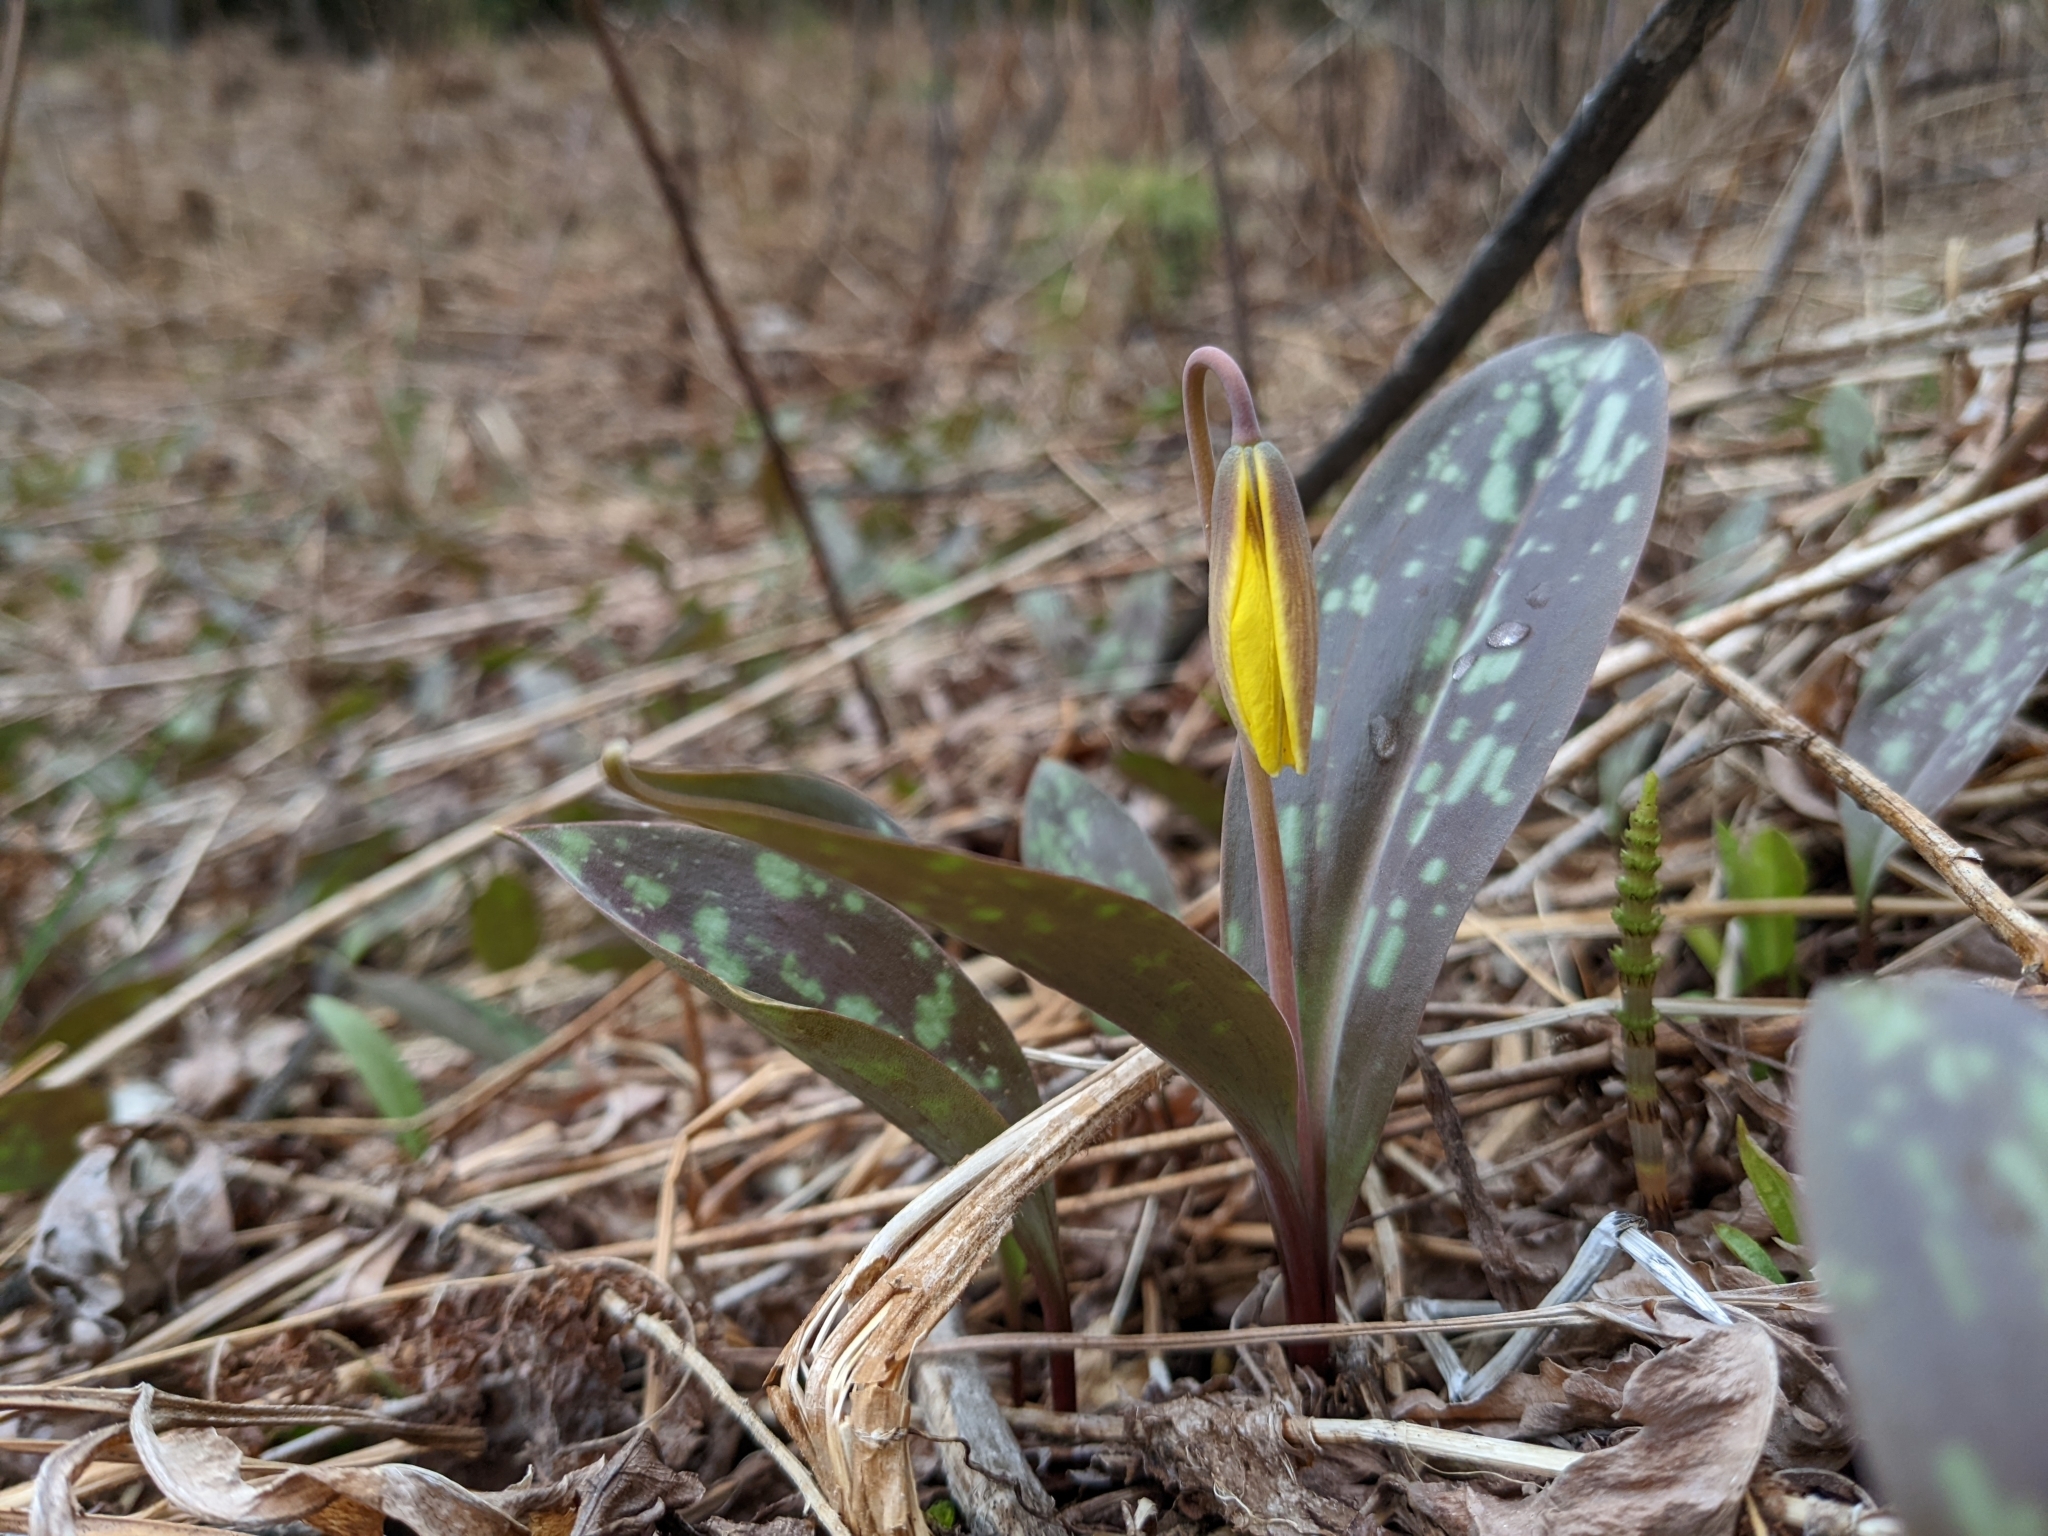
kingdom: Plantae
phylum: Tracheophyta
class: Liliopsida
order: Liliales
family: Liliaceae
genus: Erythronium
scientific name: Erythronium americanum
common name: Yellow adder's-tongue
